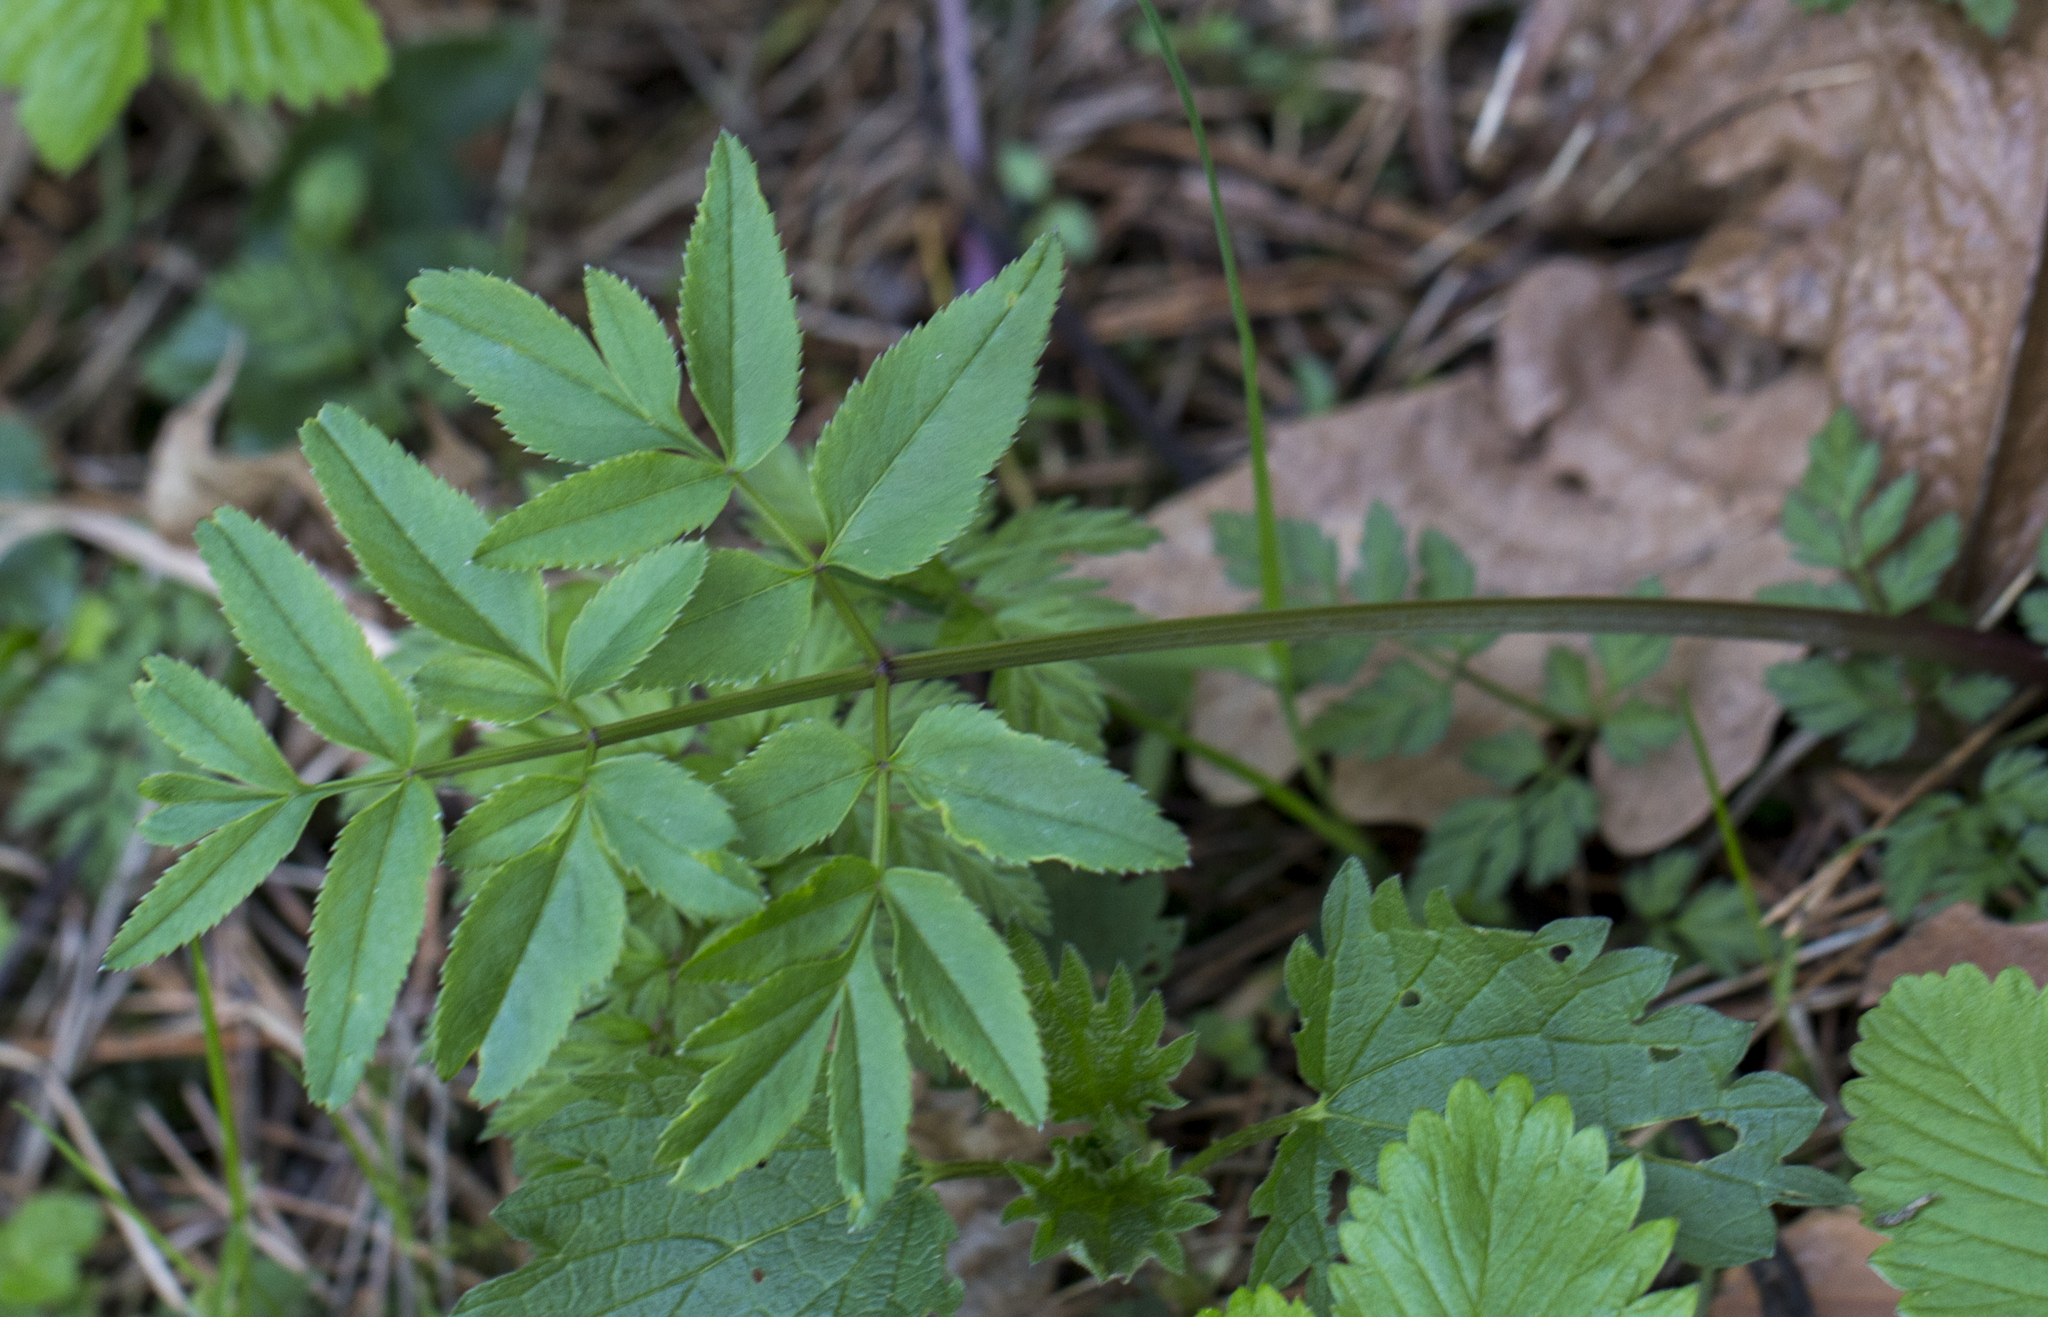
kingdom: Plantae
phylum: Tracheophyta
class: Magnoliopsida
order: Apiales
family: Apiaceae
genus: Angelica
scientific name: Angelica sylvestris
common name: Wild angelica
